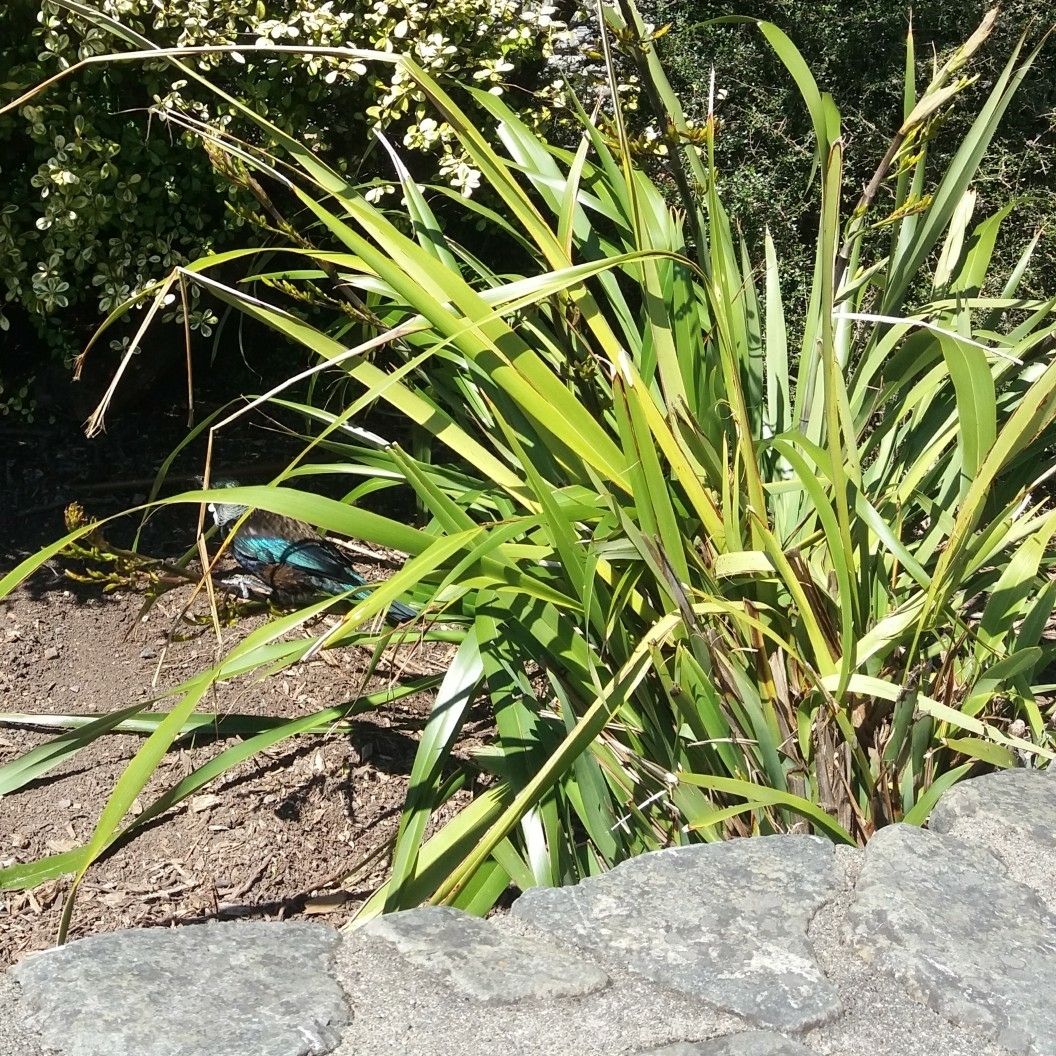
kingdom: Plantae
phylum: Tracheophyta
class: Liliopsida
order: Asparagales
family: Asphodelaceae
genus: Phormium
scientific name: Phormium colensoi
